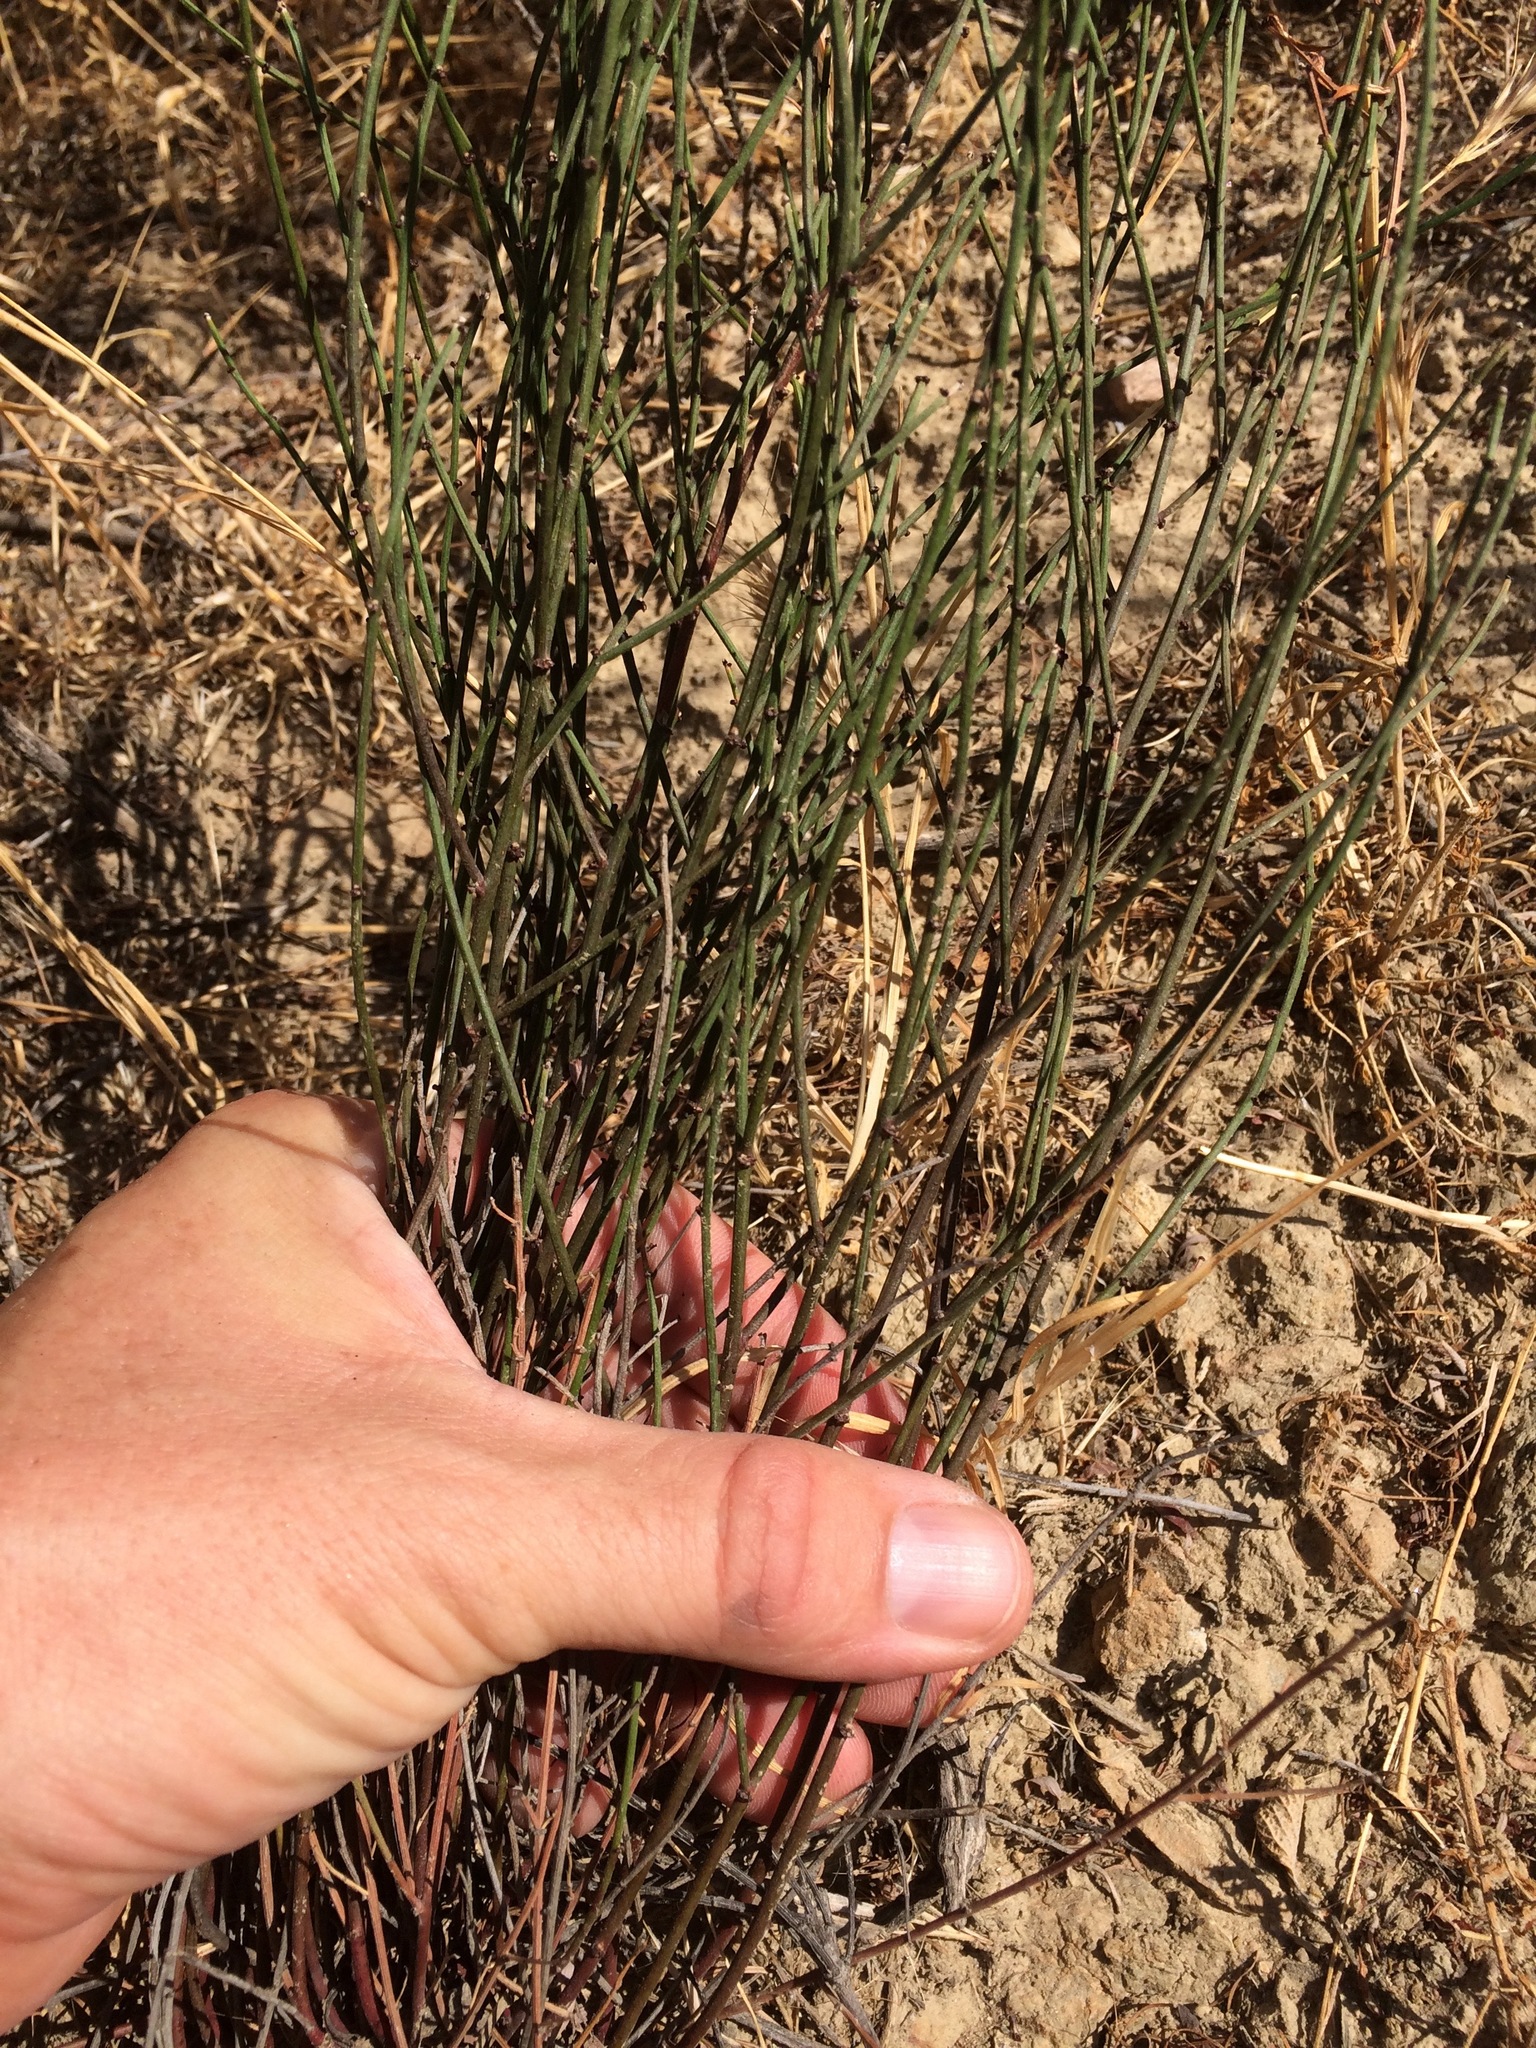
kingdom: Plantae
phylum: Tracheophyta
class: Magnoliopsida
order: Fabales
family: Fabaceae
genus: Acmispon
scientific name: Acmispon glaber
